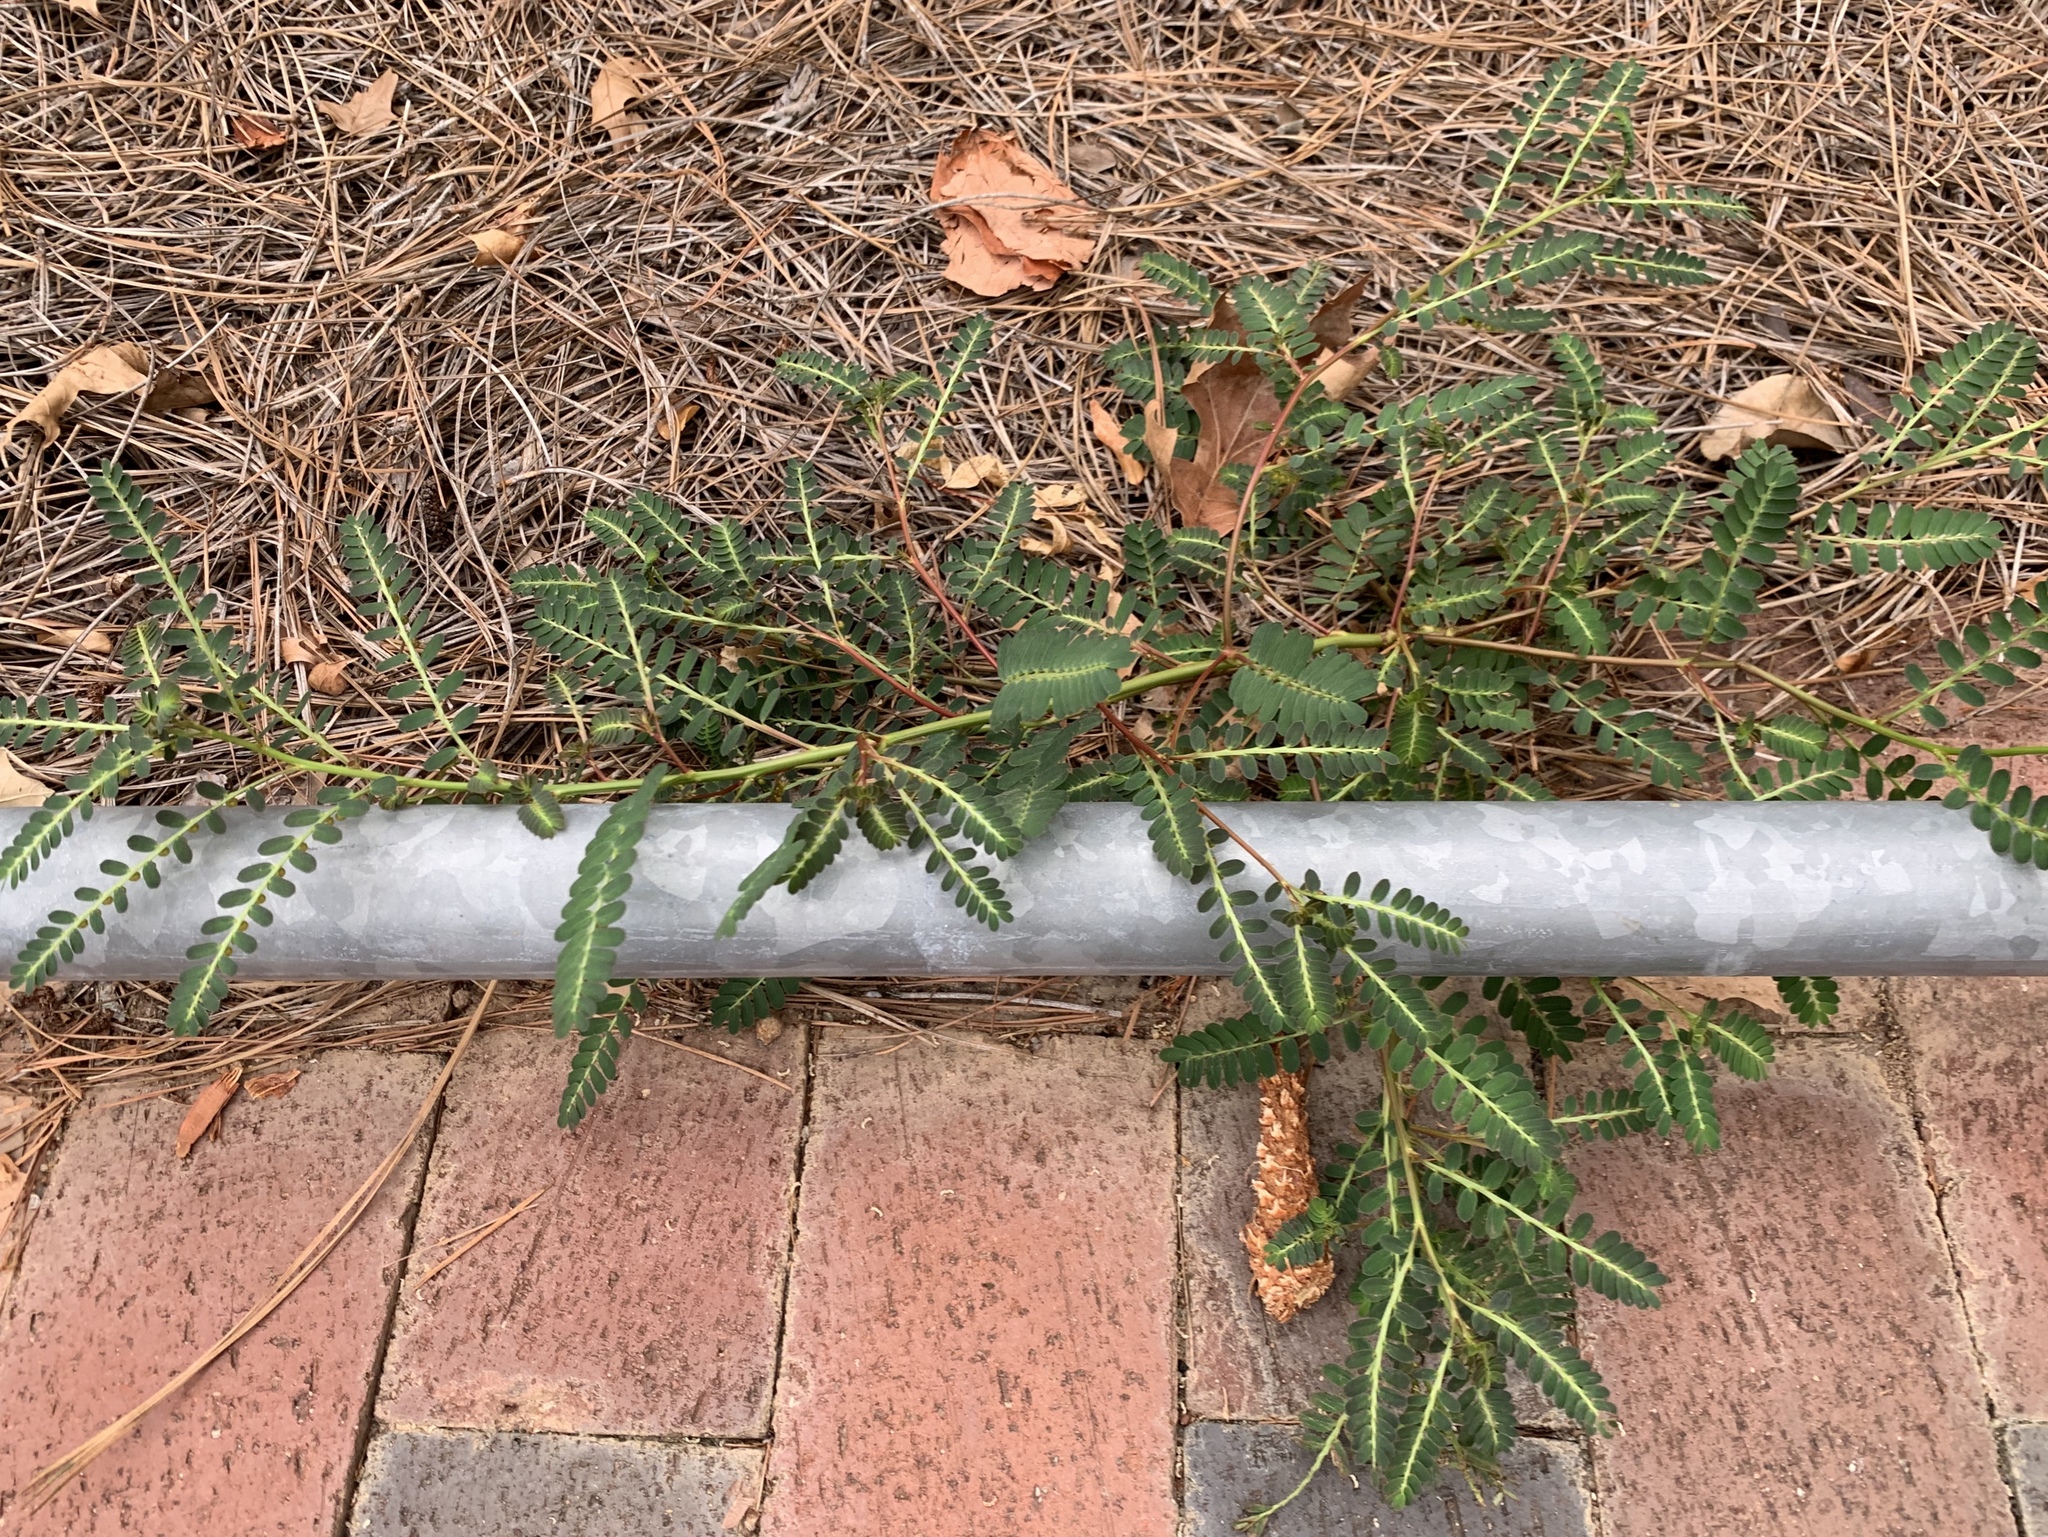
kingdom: Plantae
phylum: Tracheophyta
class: Magnoliopsida
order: Malpighiales
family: Phyllanthaceae
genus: Phyllanthus
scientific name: Phyllanthus urinaria
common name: Chamber bitter
